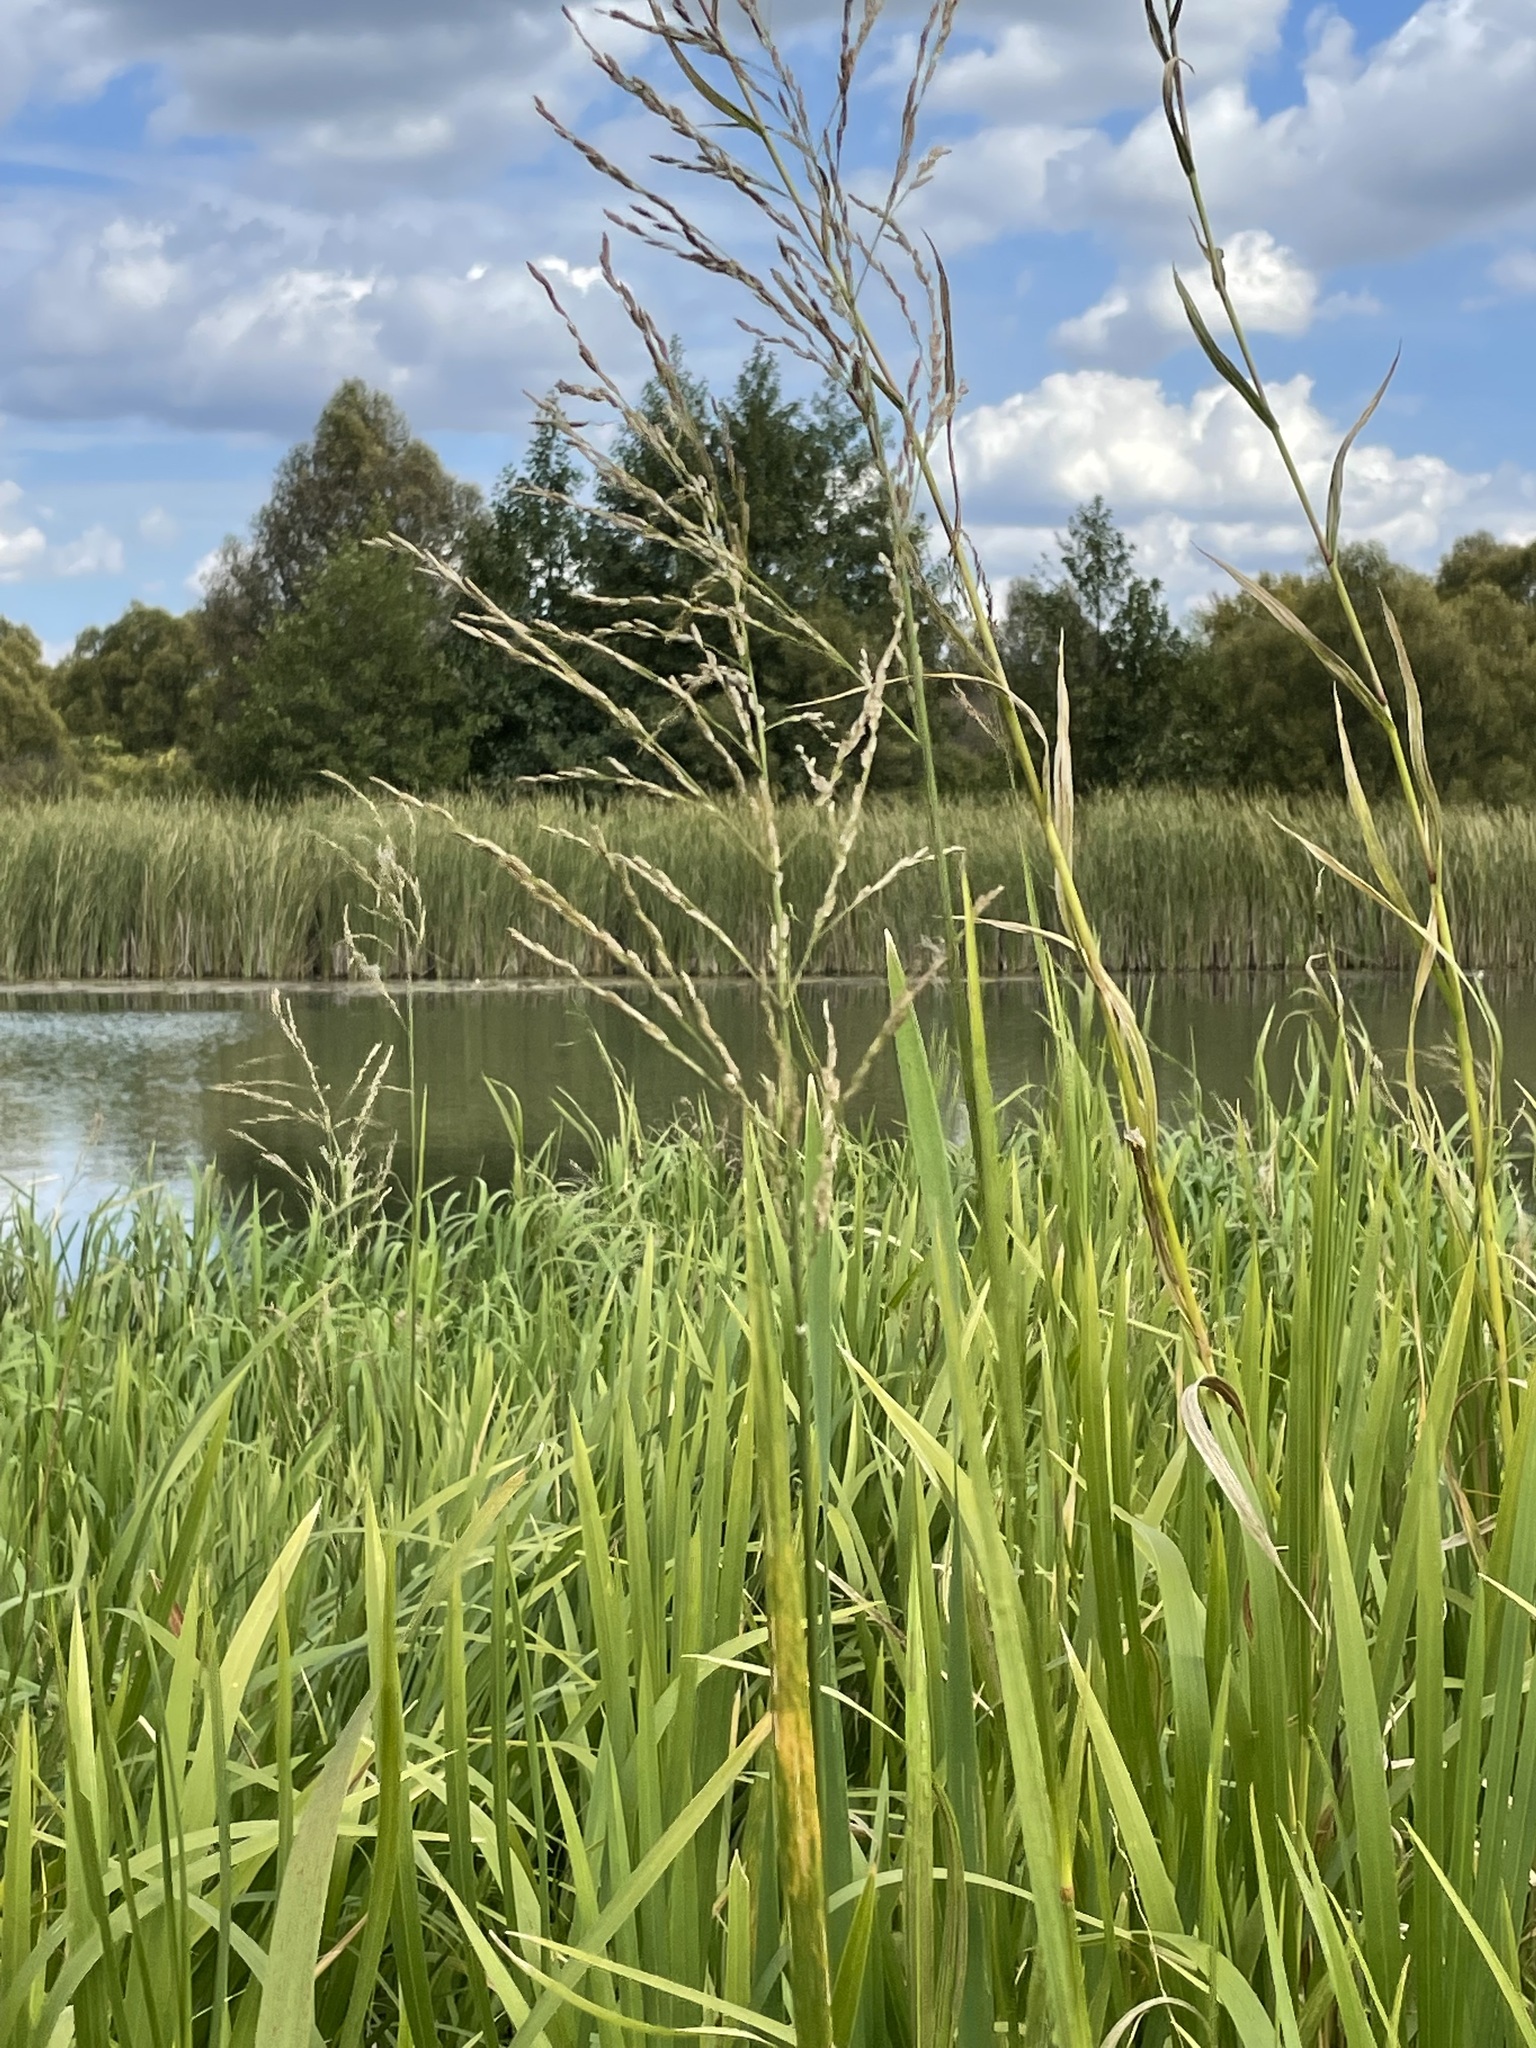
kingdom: Plantae
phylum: Tracheophyta
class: Liliopsida
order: Poales
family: Poaceae
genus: Glyceria
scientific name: Glyceria maxima
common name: Reed mannagrass
